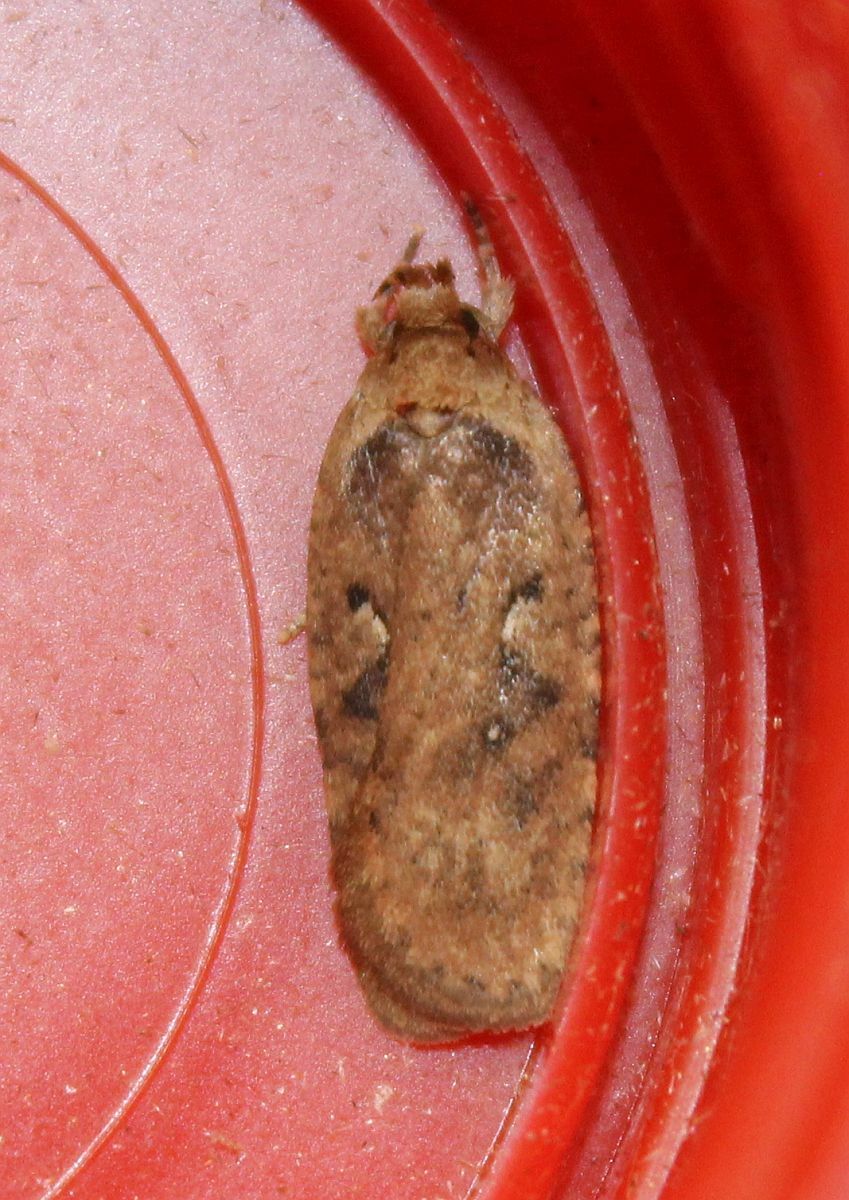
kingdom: Animalia
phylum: Arthropoda
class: Insecta
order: Lepidoptera
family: Depressariidae
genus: Agonopterix
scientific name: Agonopterix heracliana
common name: Common flat-body
